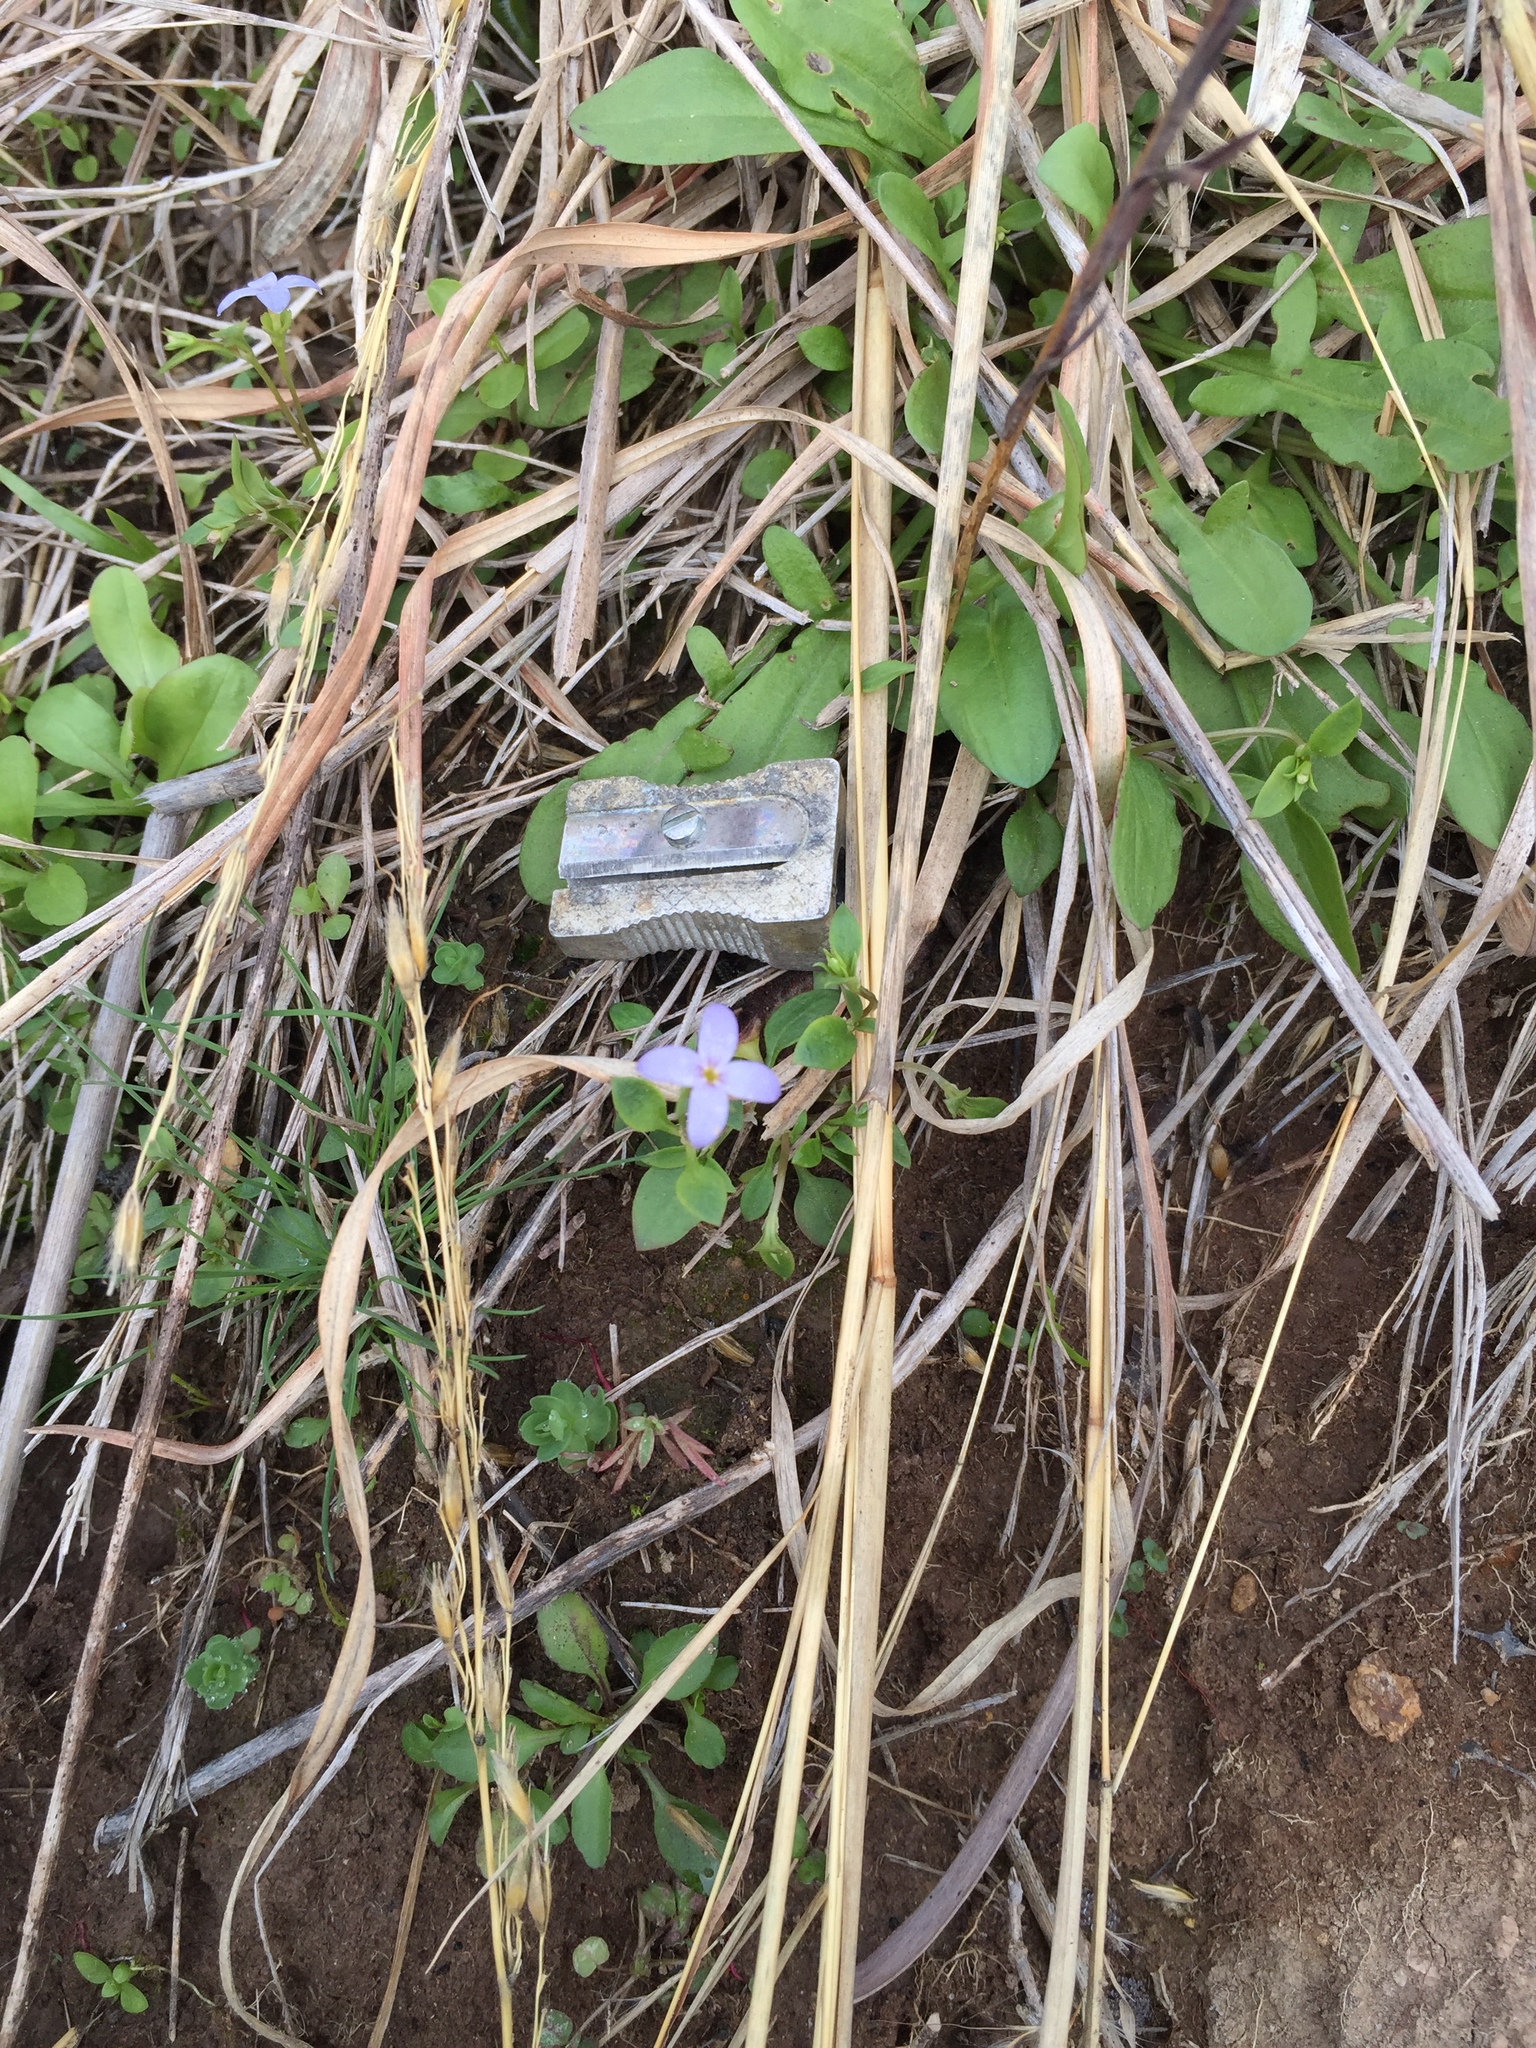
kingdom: Plantae
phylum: Tracheophyta
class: Magnoliopsida
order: Gentianales
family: Rubiaceae
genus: Houstonia
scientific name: Houstonia pusilla
